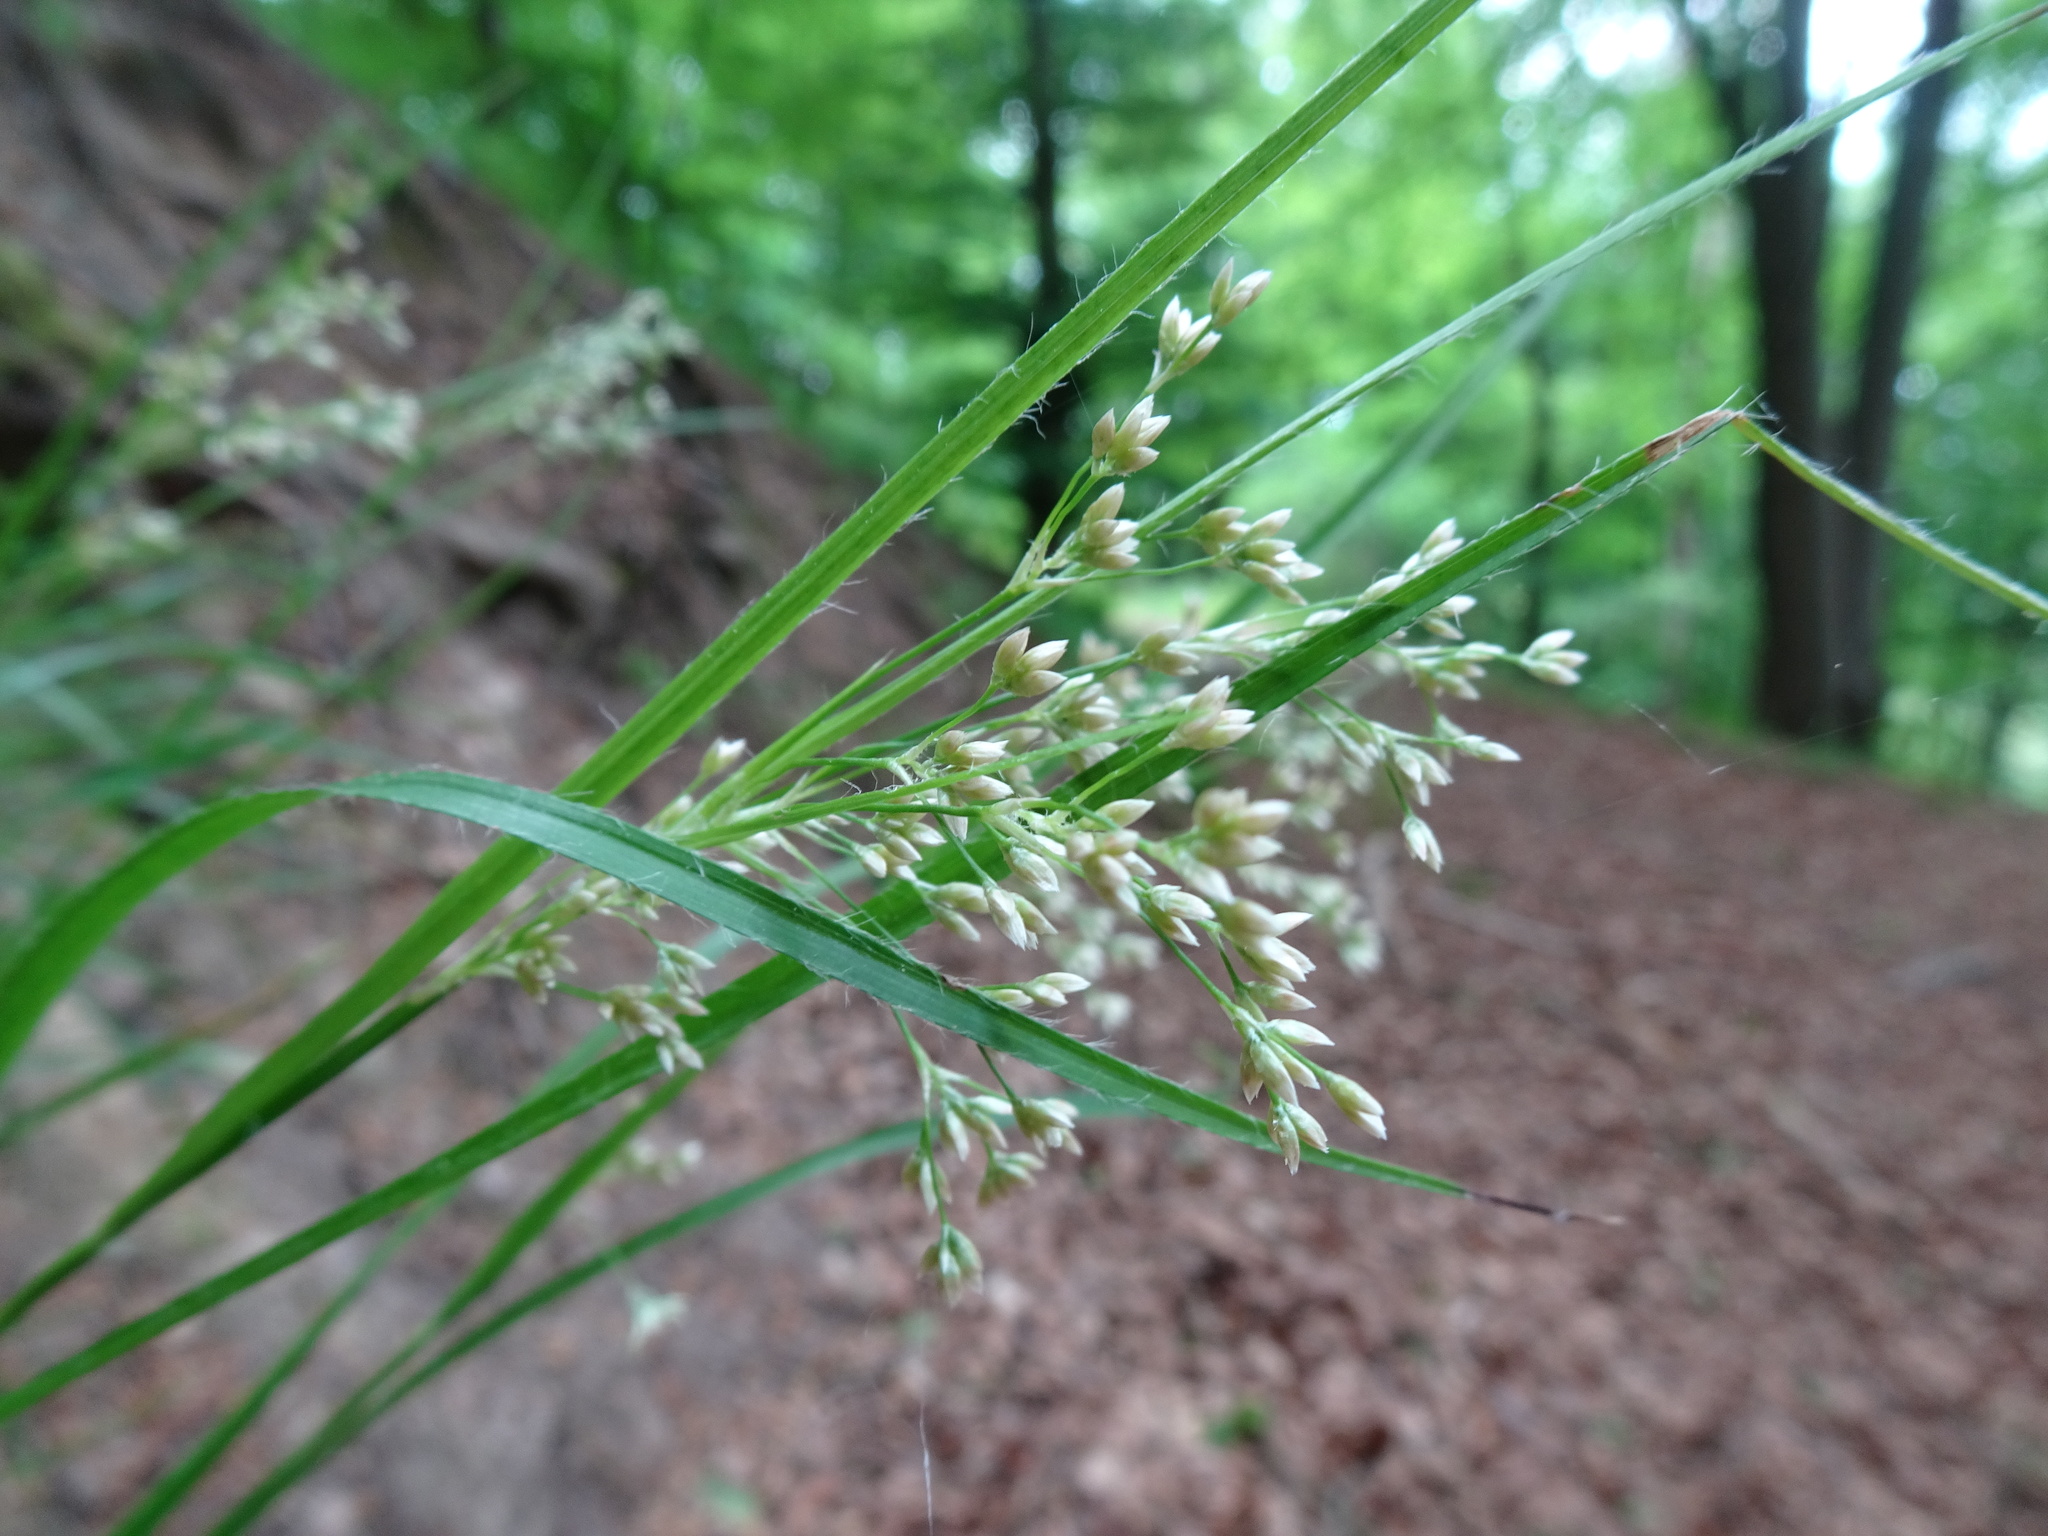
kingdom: Plantae
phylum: Tracheophyta
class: Liliopsida
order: Poales
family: Juncaceae
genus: Luzula
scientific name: Luzula luzuloides
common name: White wood-rush
